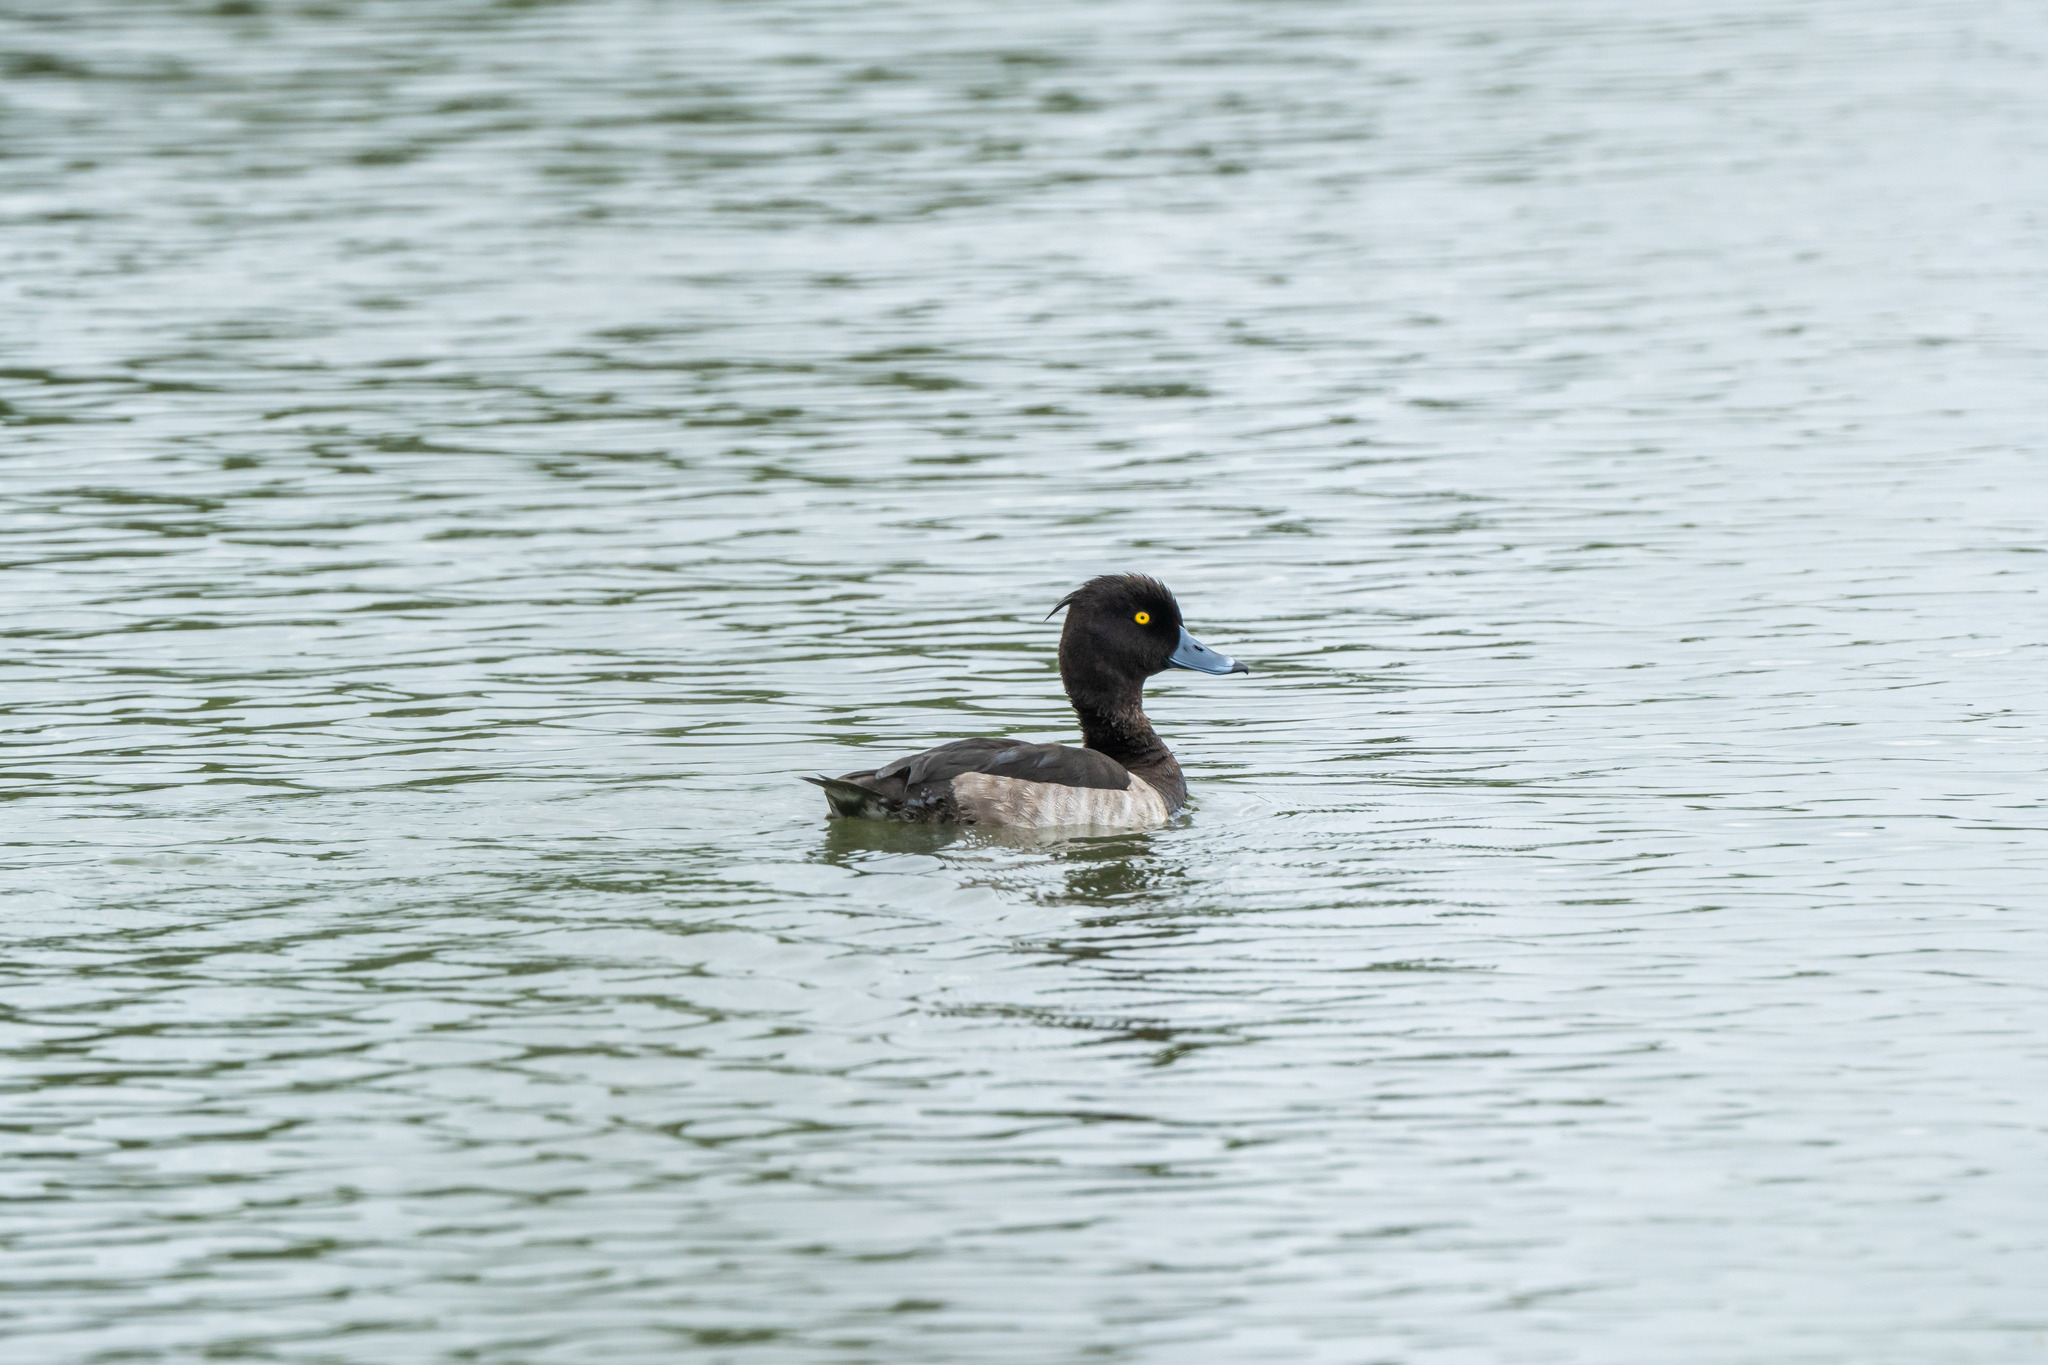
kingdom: Animalia
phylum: Chordata
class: Aves
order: Anseriformes
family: Anatidae
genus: Aythya
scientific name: Aythya fuligula
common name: Tufted duck
